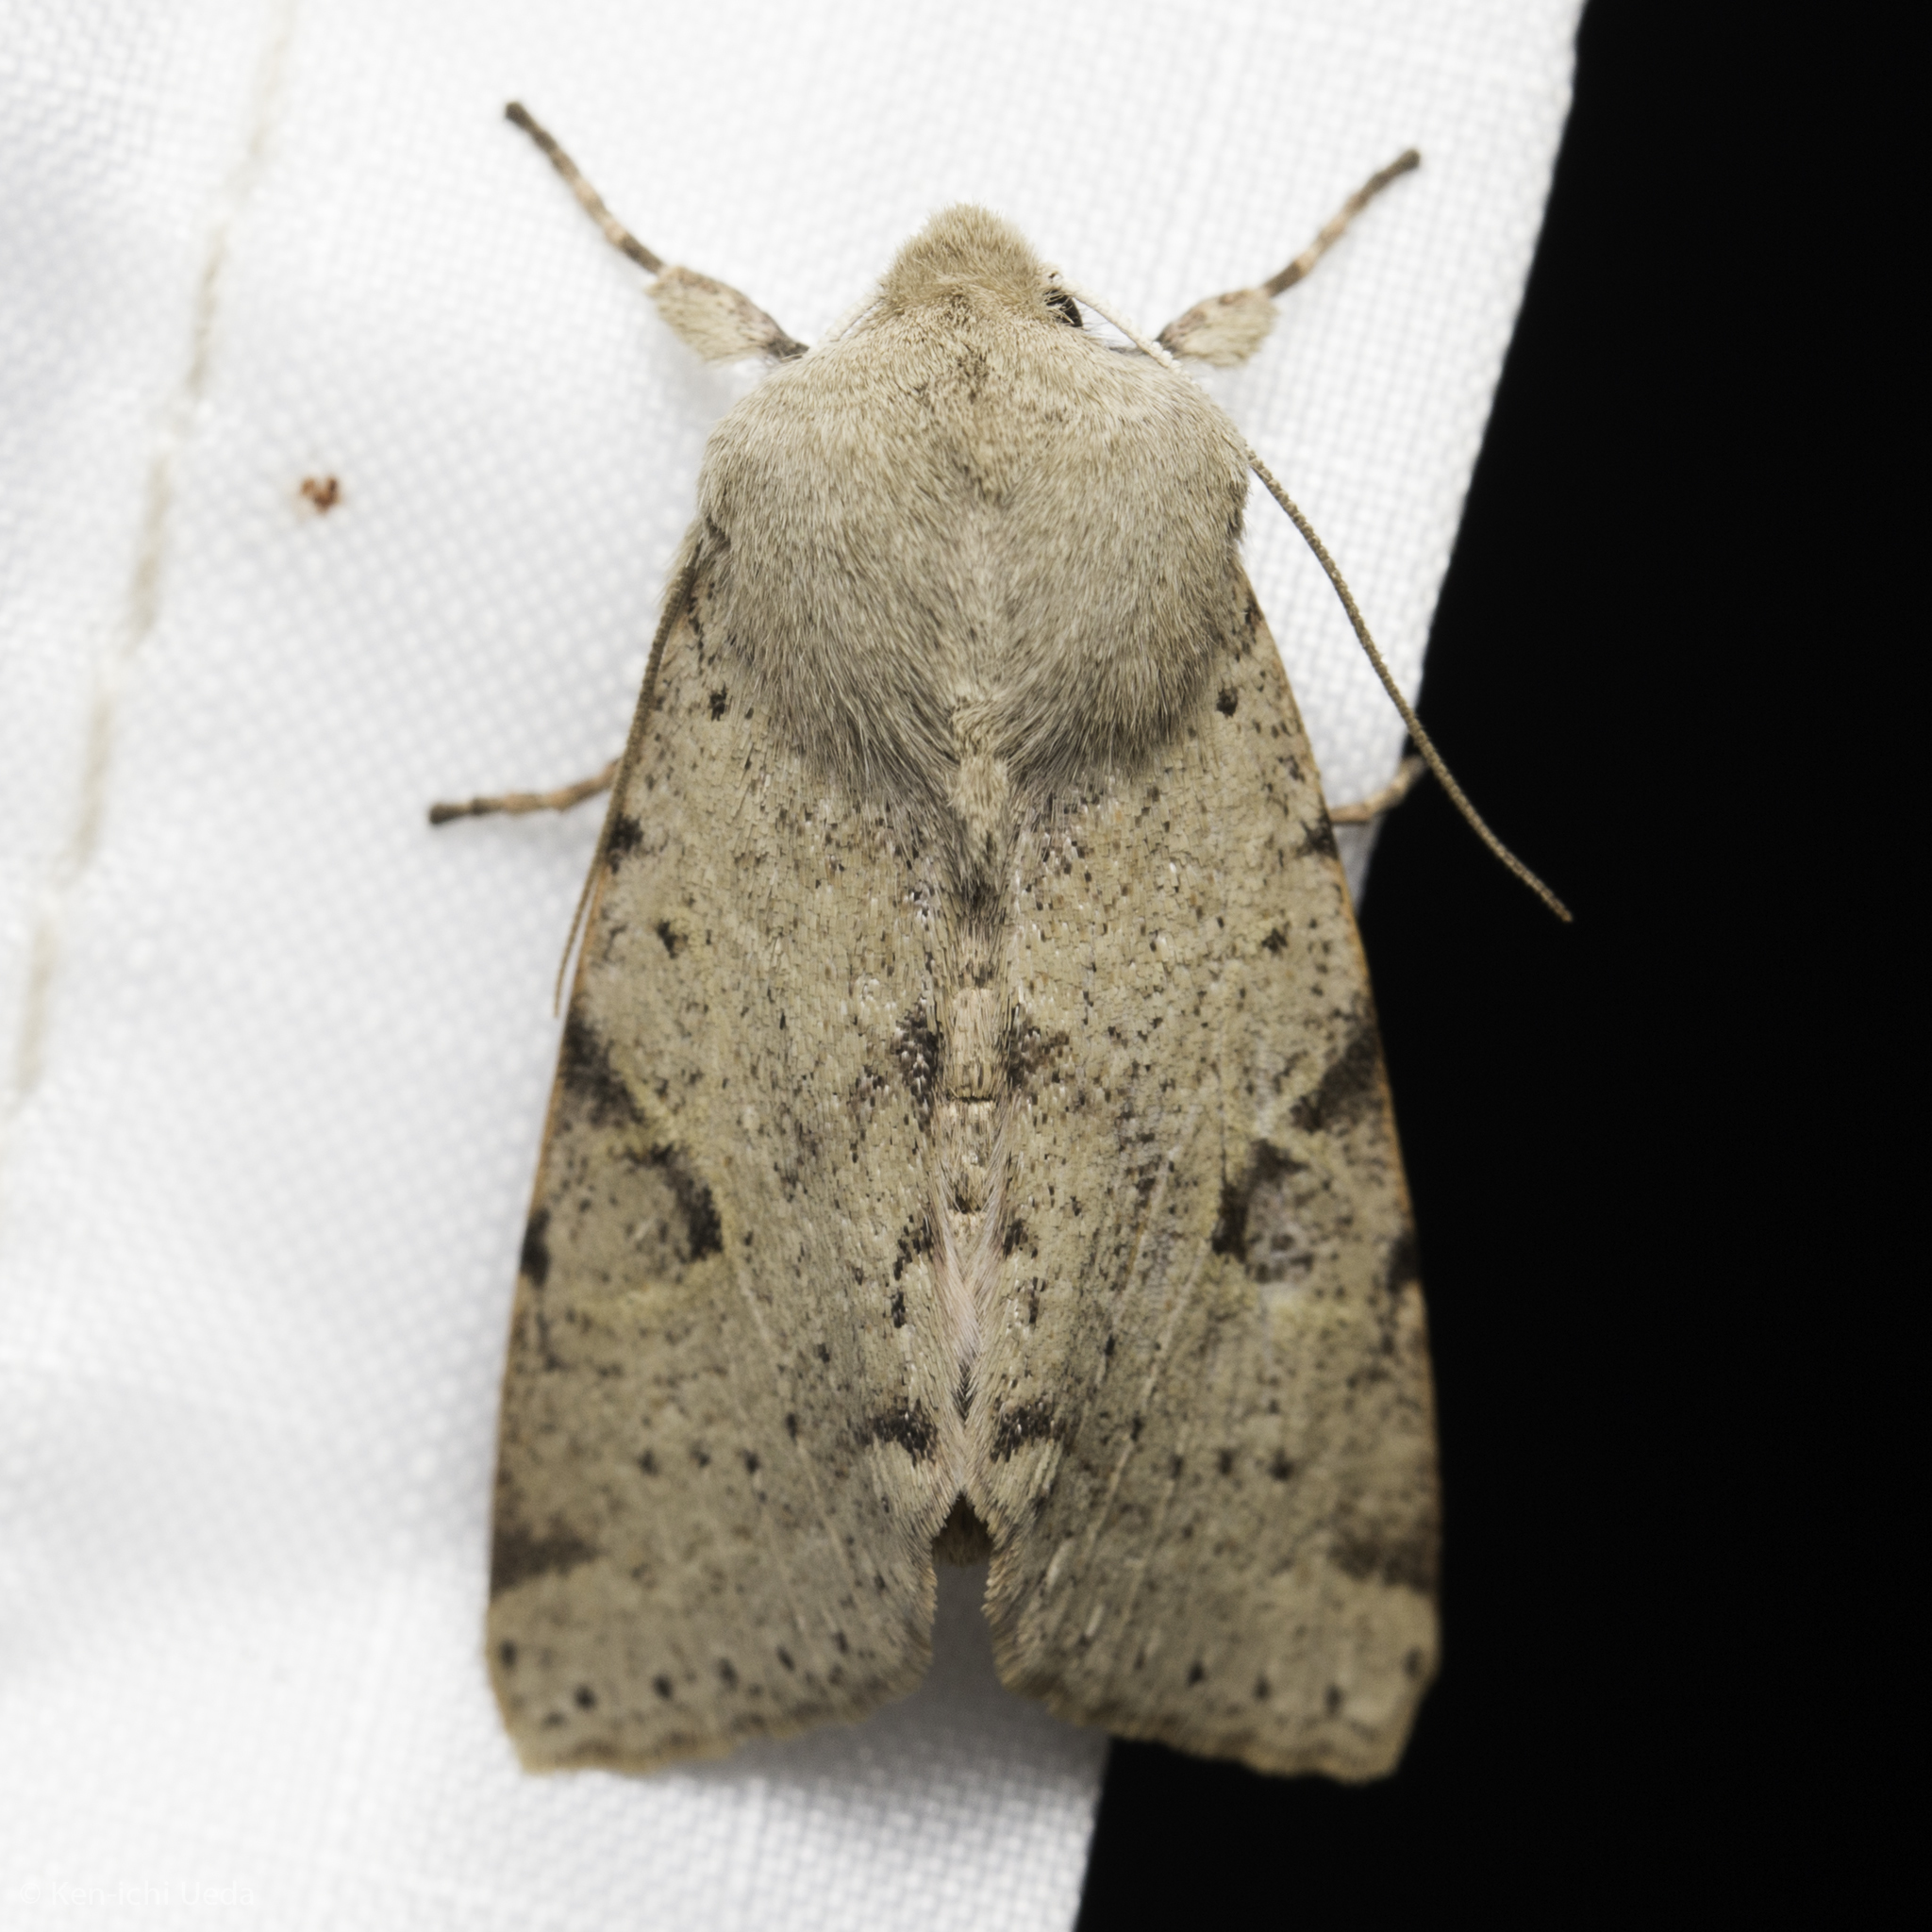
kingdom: Animalia
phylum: Arthropoda
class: Insecta
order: Lepidoptera
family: Noctuidae
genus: Orthosia
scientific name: Orthosia behrensiana
